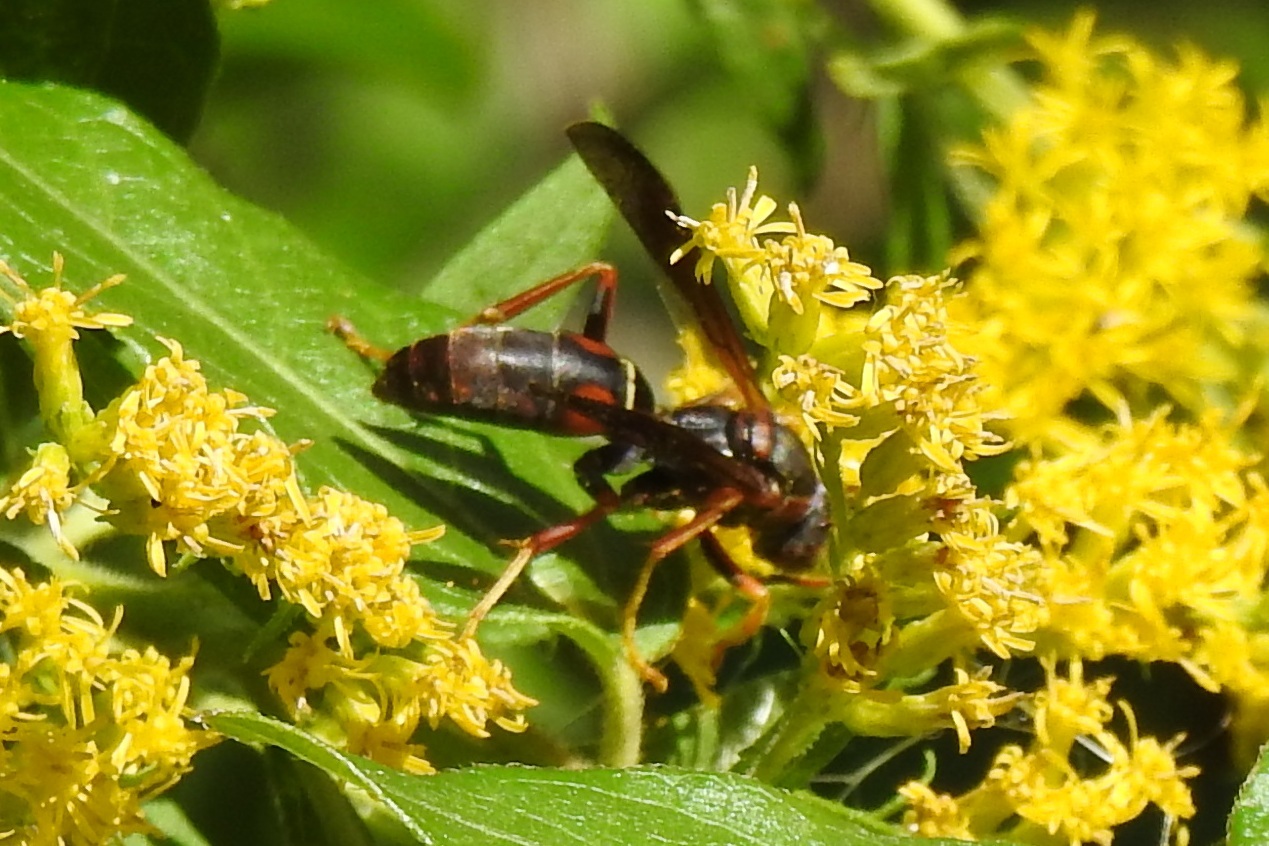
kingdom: Animalia
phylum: Arthropoda
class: Insecta
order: Hymenoptera
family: Eumenidae
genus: Polistes
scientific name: Polistes fuscatus
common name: Dark paper wasp
